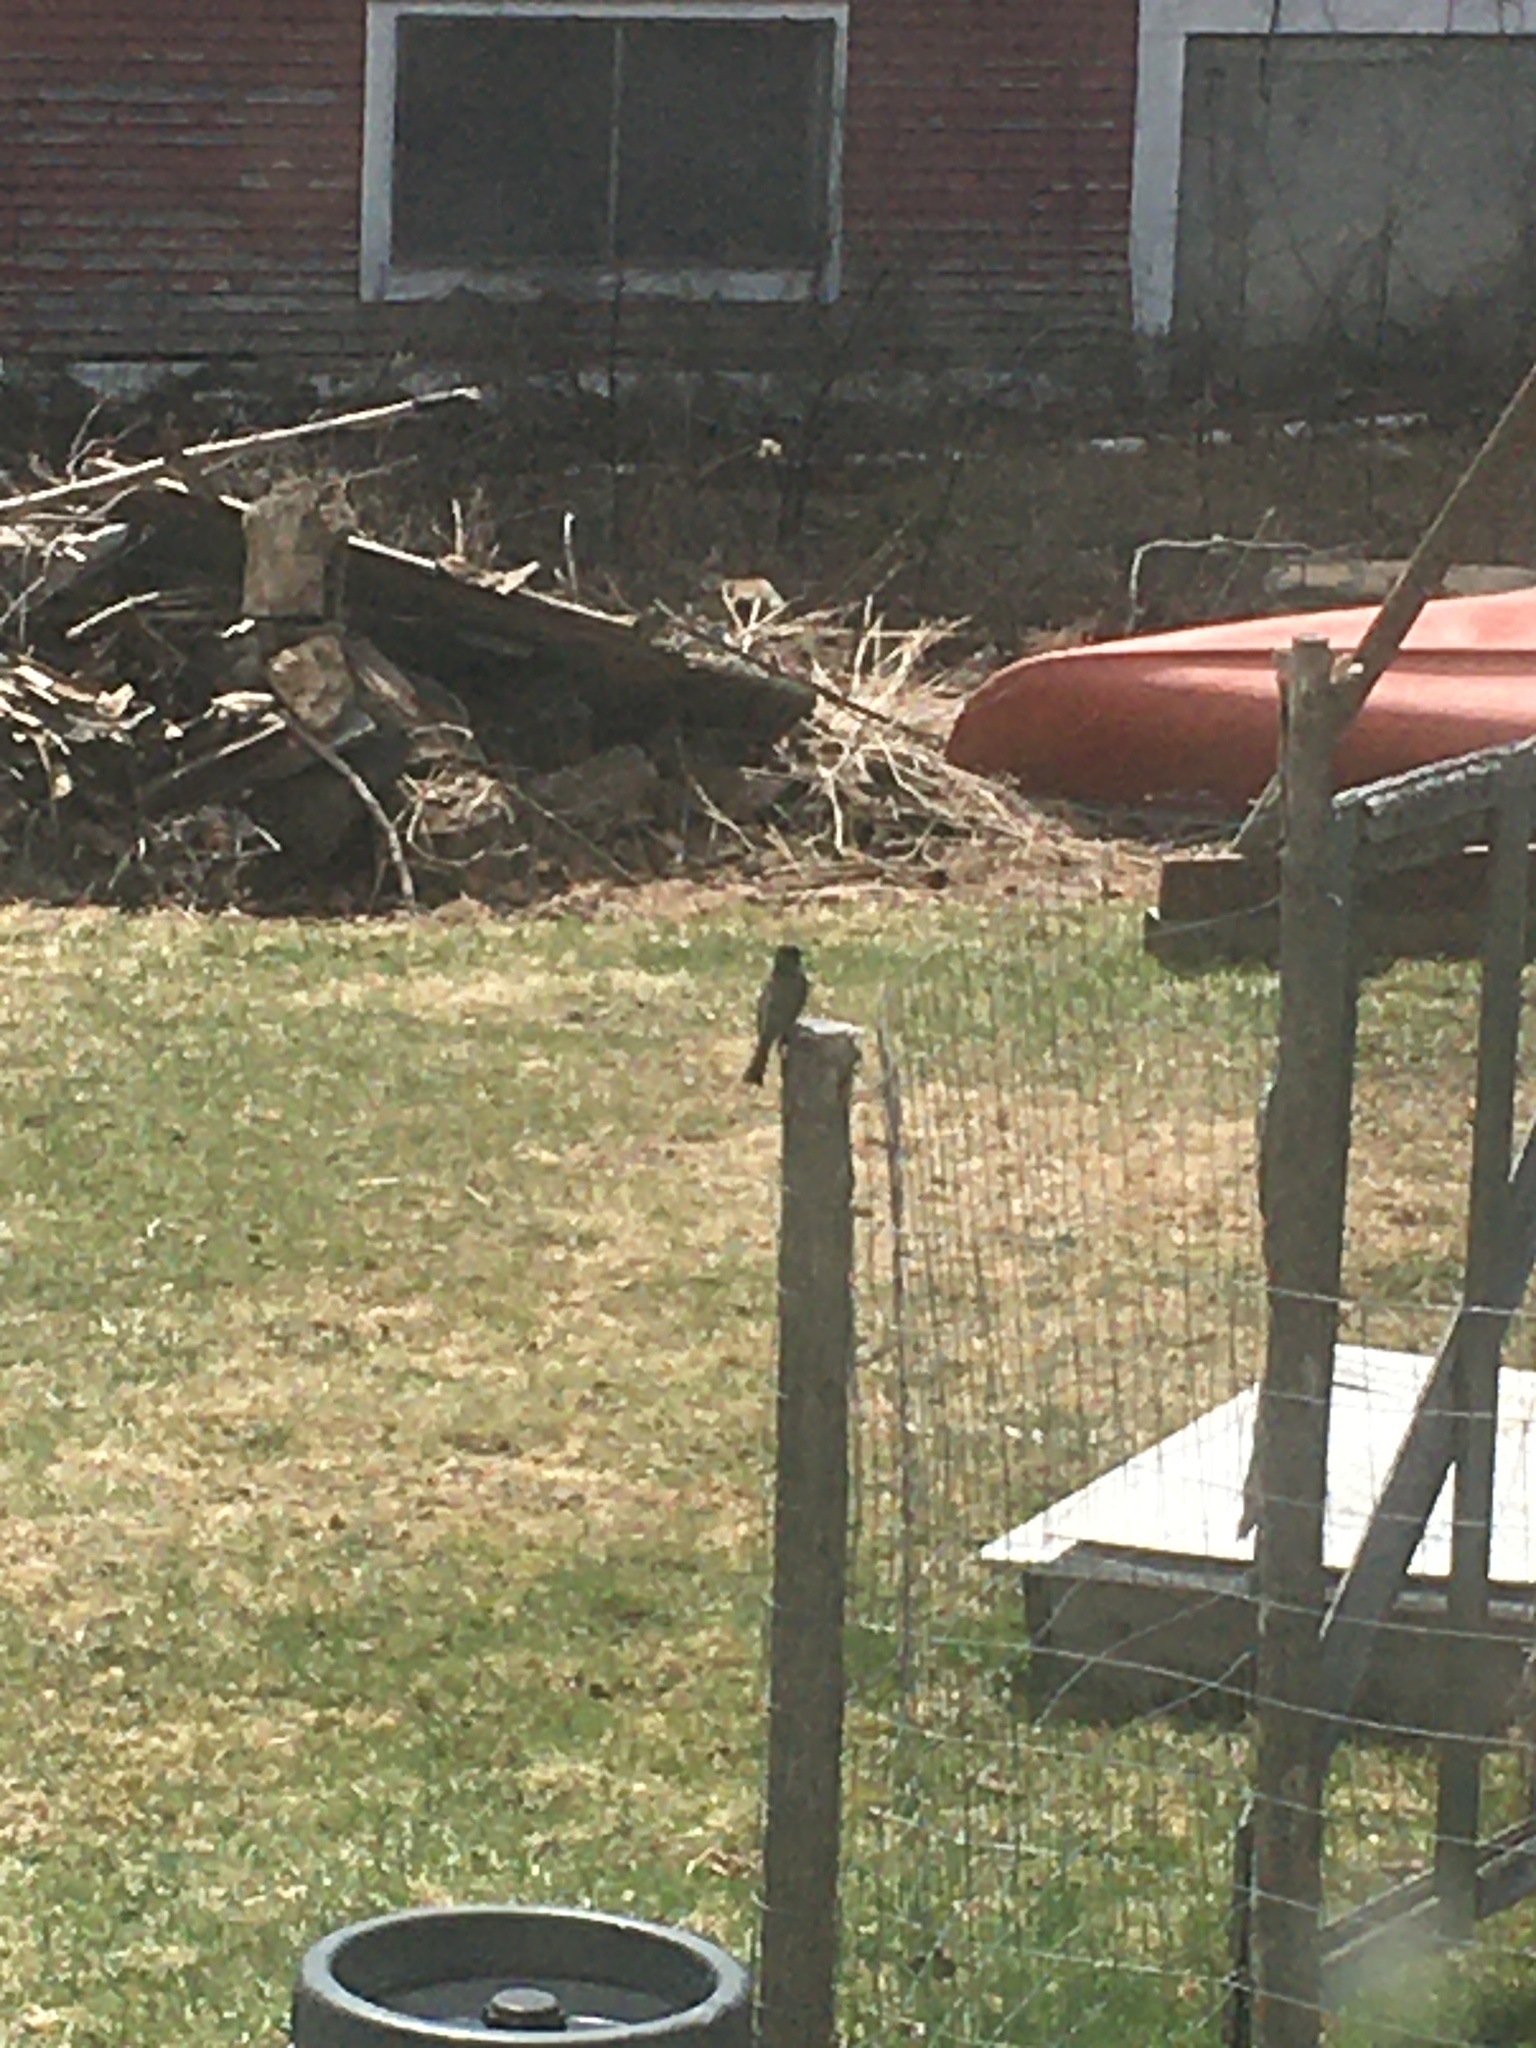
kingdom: Animalia
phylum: Chordata
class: Aves
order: Passeriformes
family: Tyrannidae
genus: Sayornis
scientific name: Sayornis phoebe
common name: Eastern phoebe
